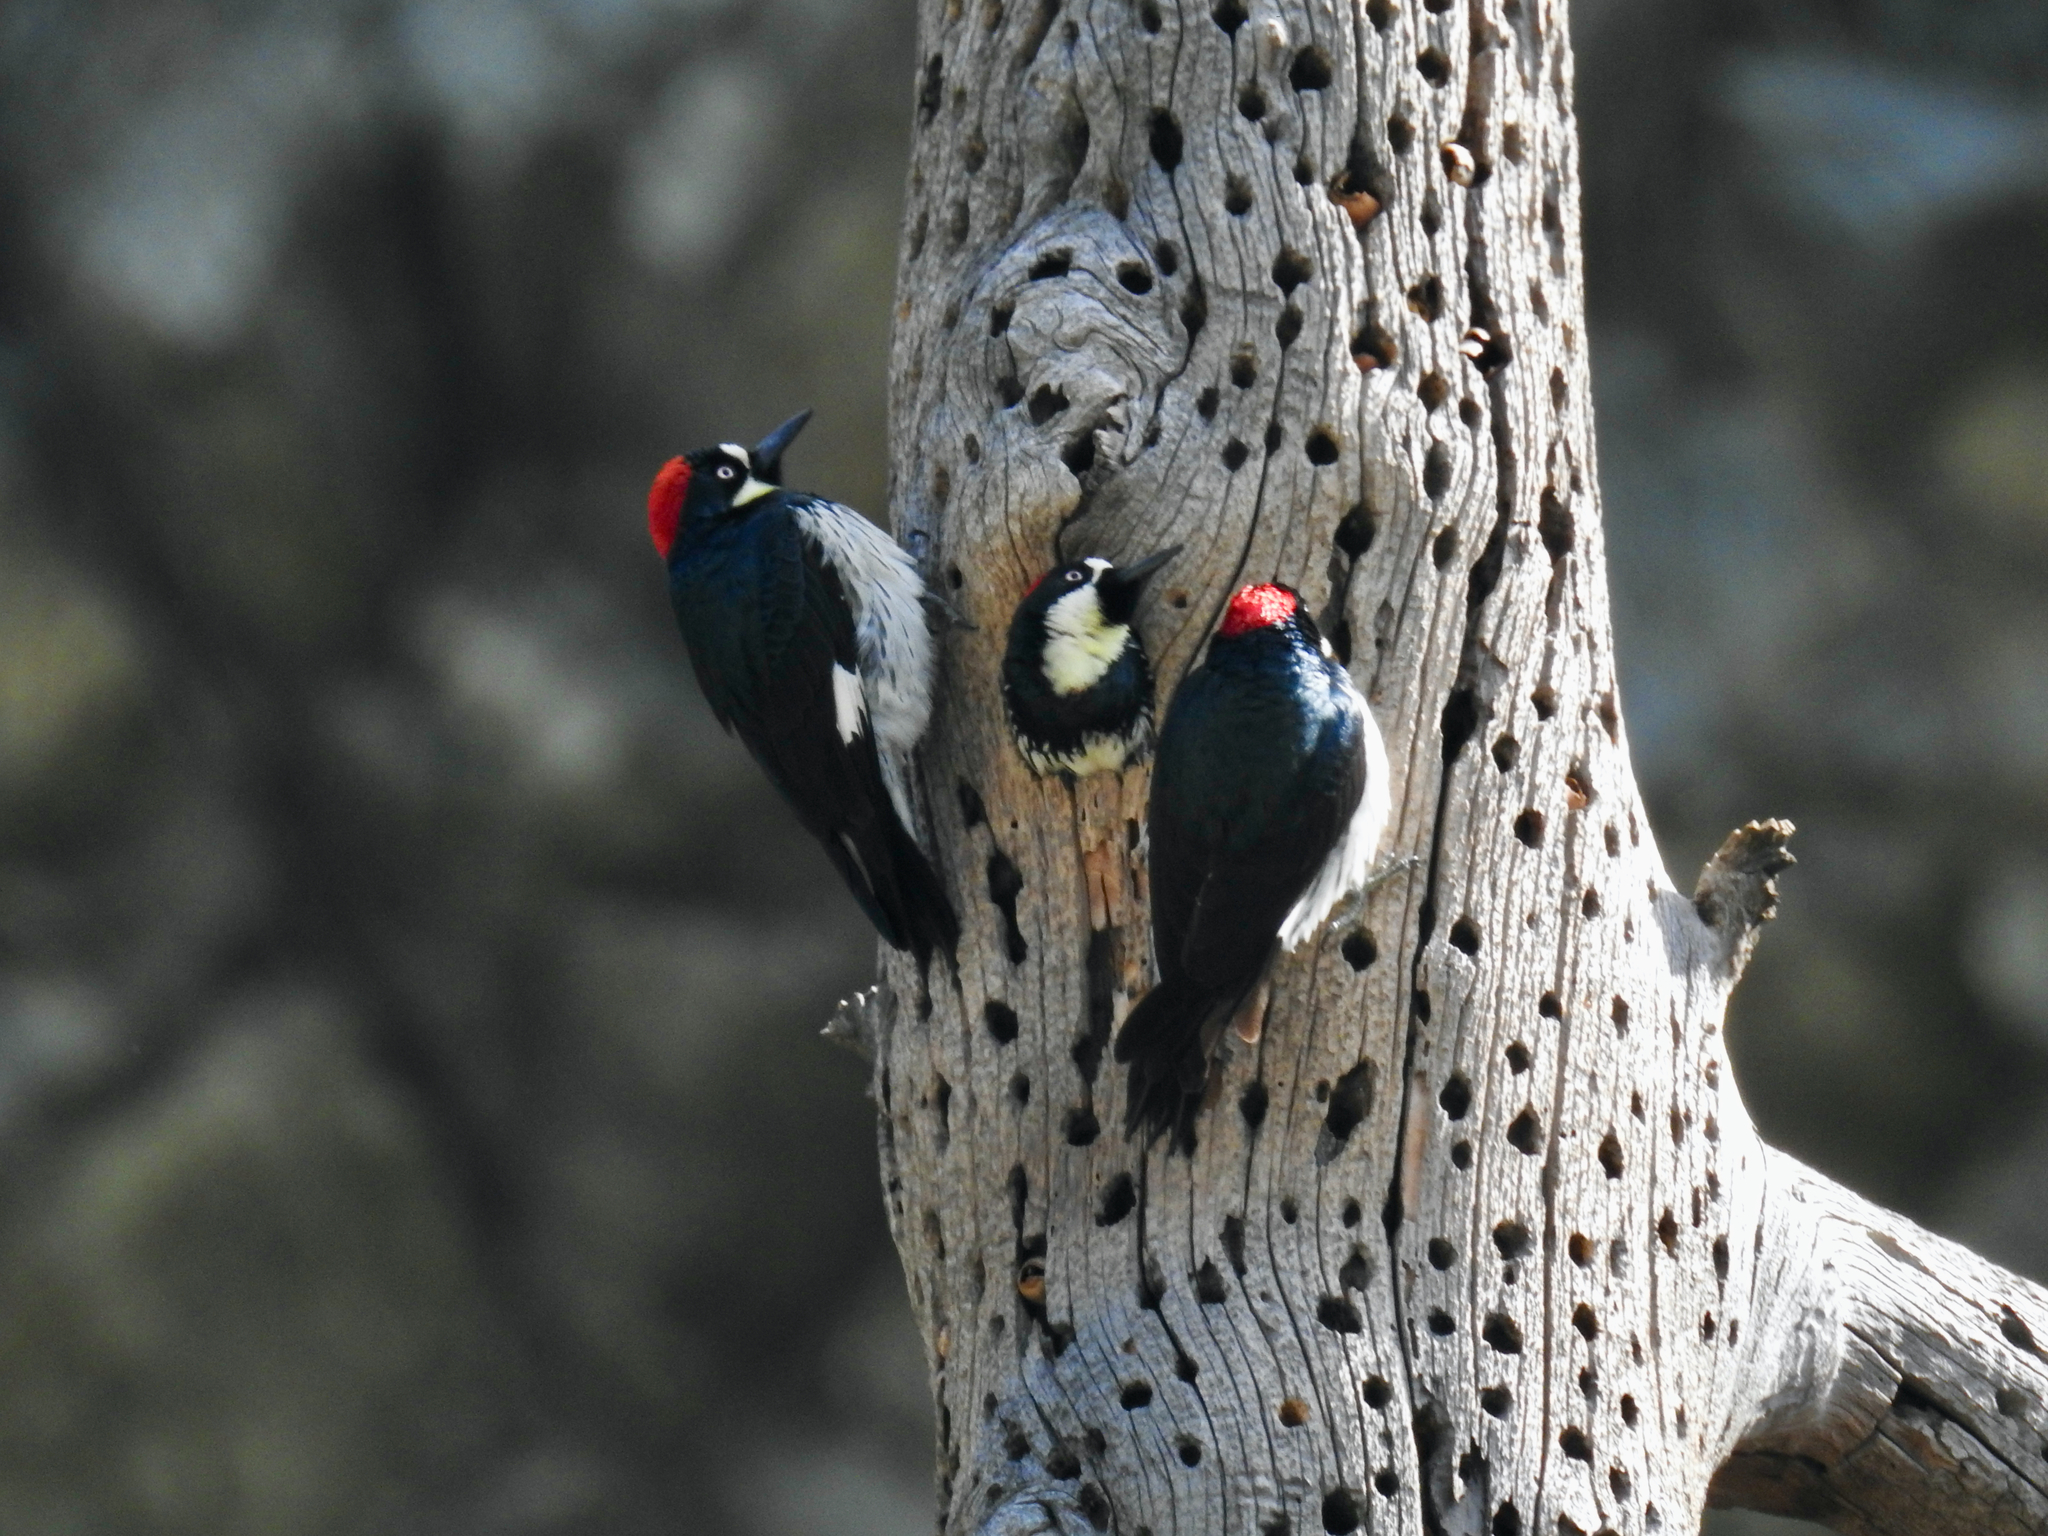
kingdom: Animalia
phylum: Chordata
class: Aves
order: Piciformes
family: Picidae
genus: Melanerpes
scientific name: Melanerpes formicivorus
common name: Acorn woodpecker
